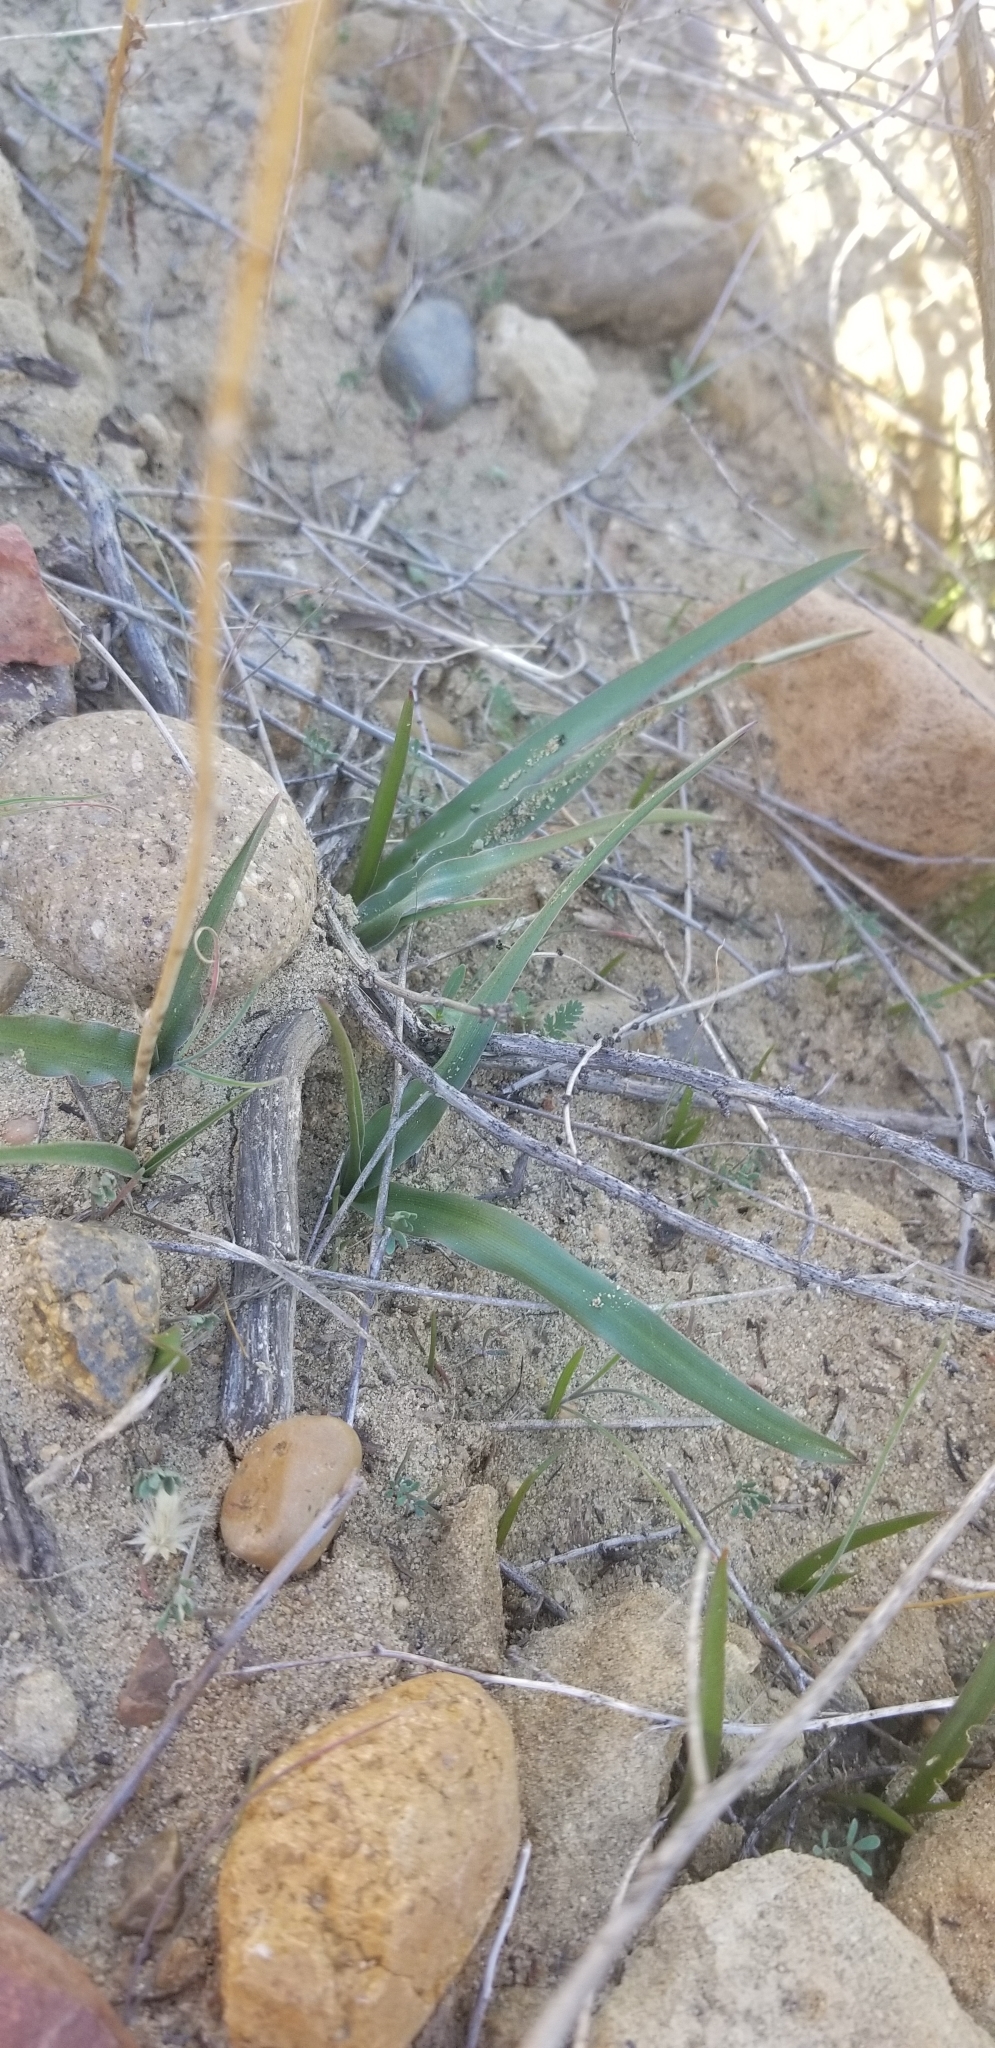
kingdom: Plantae
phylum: Tracheophyta
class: Liliopsida
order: Asparagales
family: Asparagaceae
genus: Hooveria
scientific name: Hooveria parviflora
